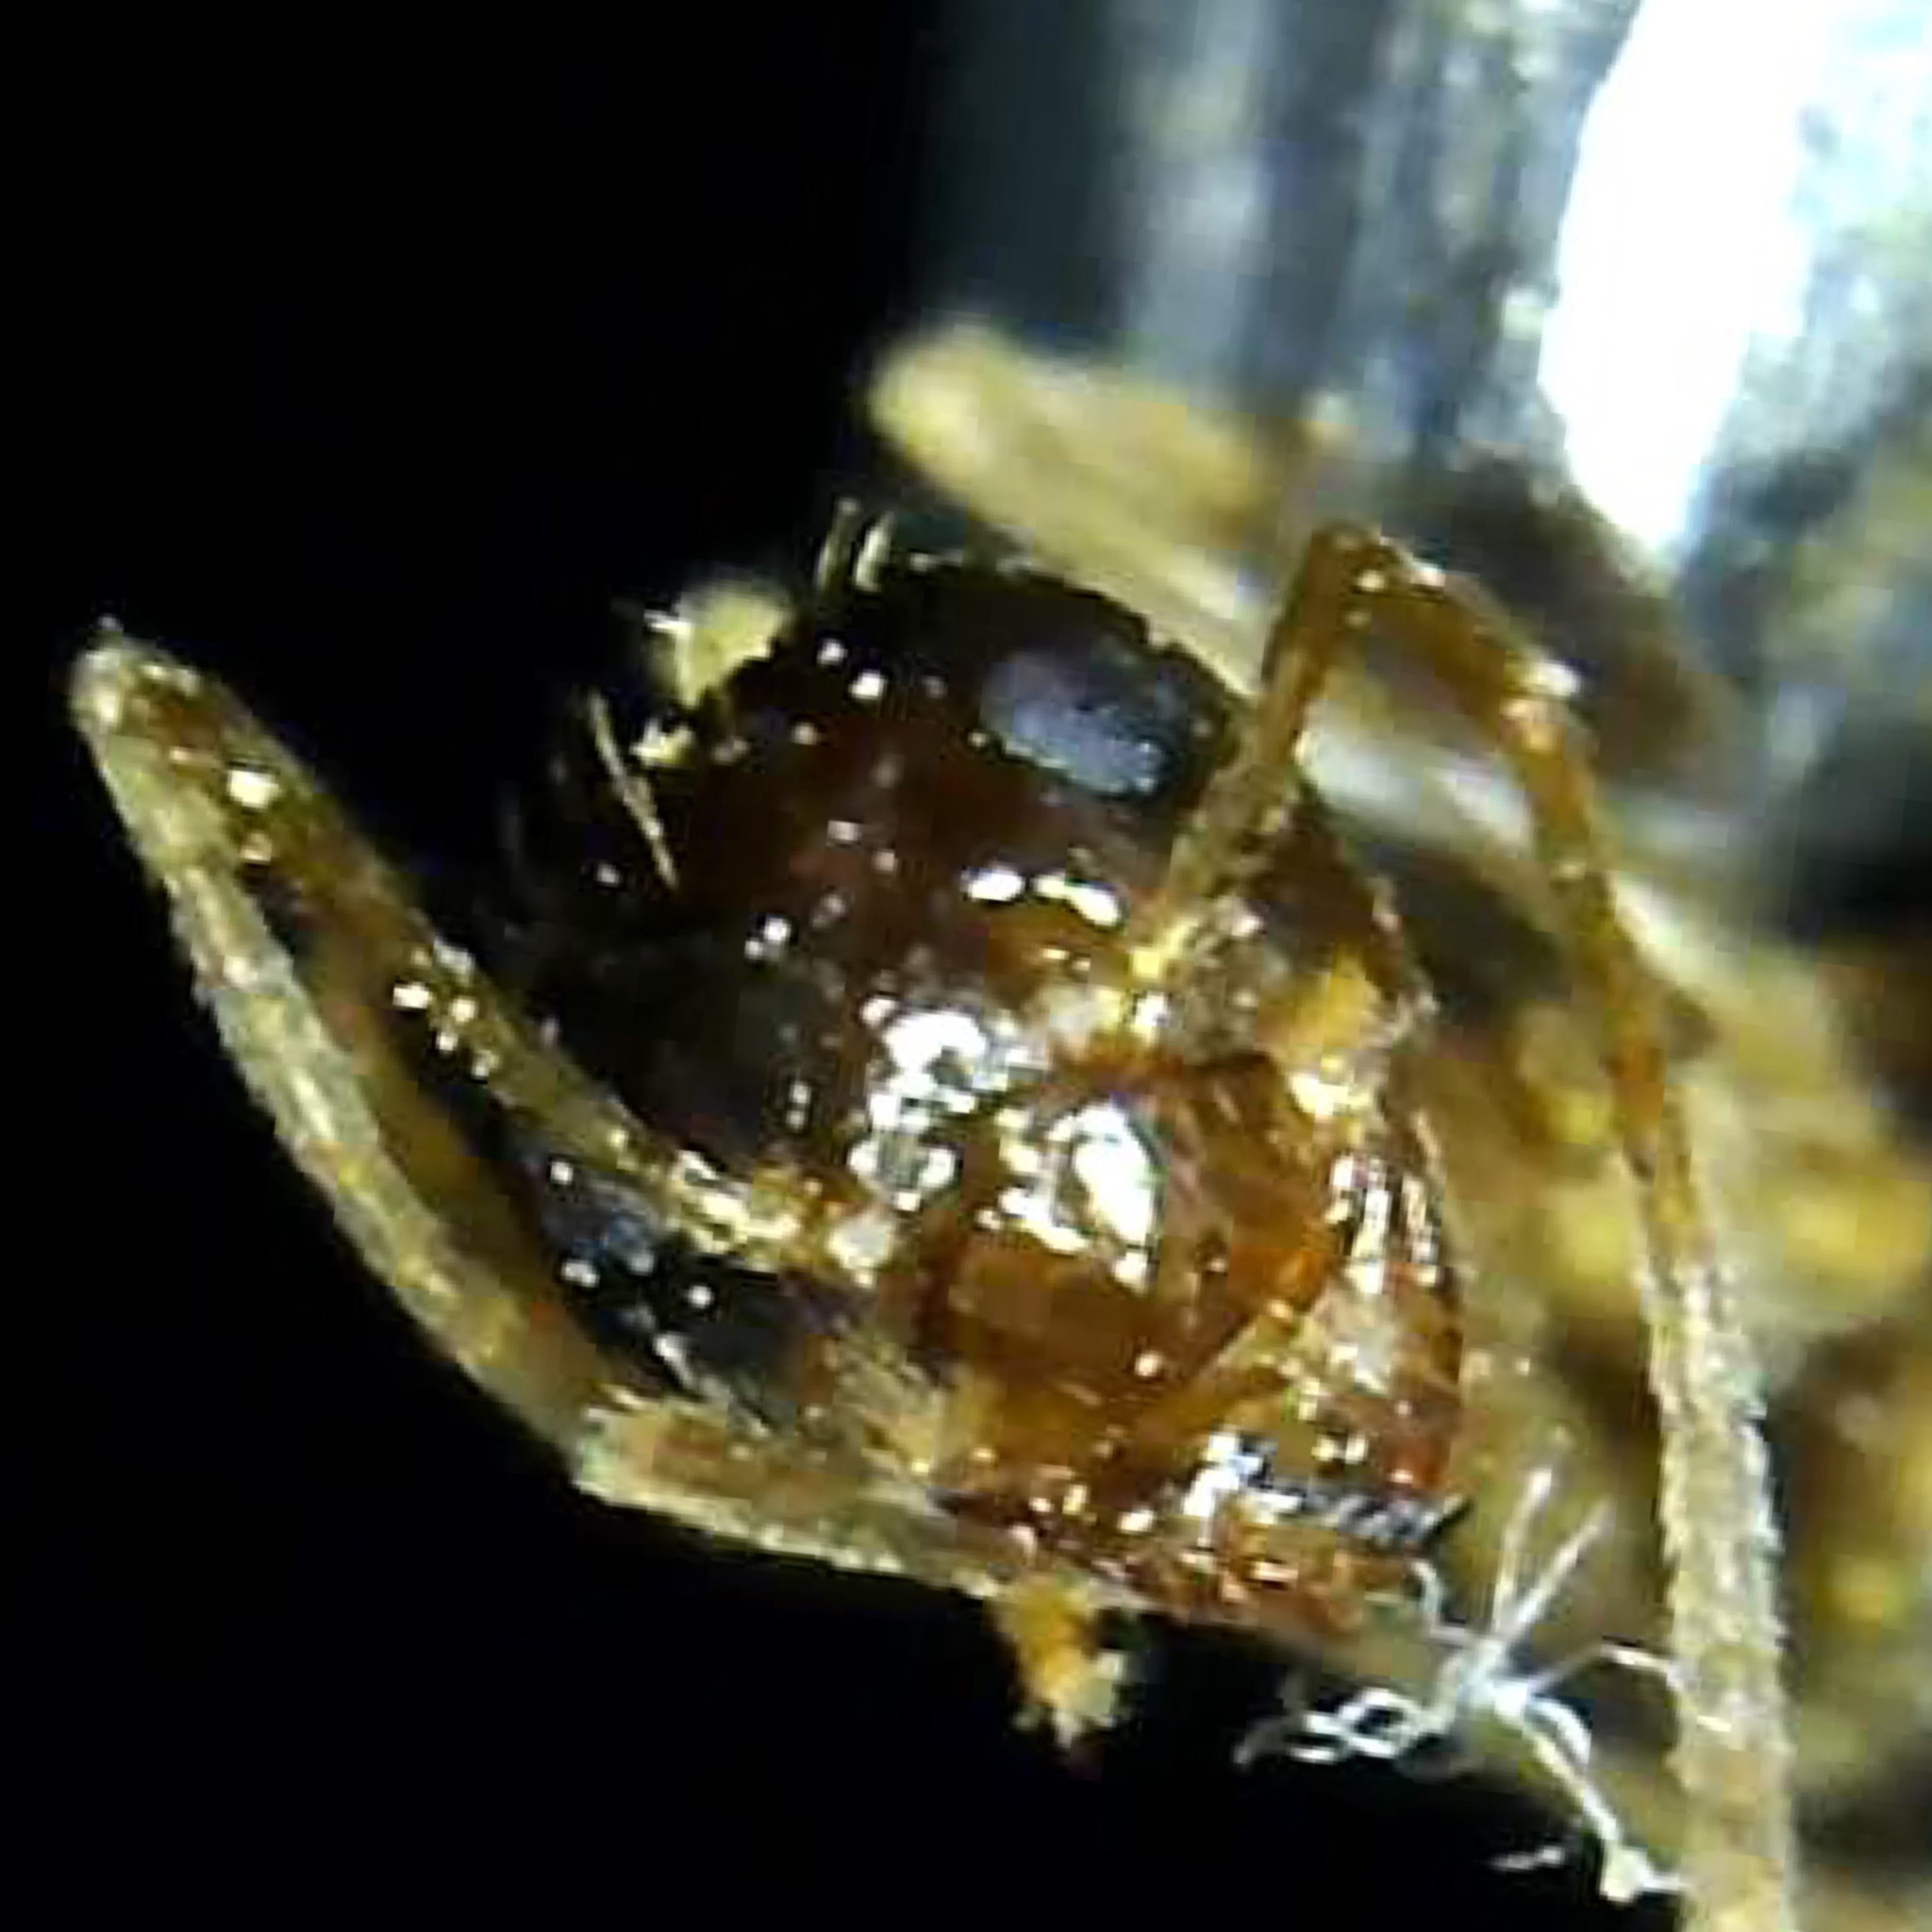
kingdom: Animalia
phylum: Arthropoda
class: Insecta
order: Hymenoptera
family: Formicidae
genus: Prenolepis
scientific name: Prenolepis imparis
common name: Small honey ant
